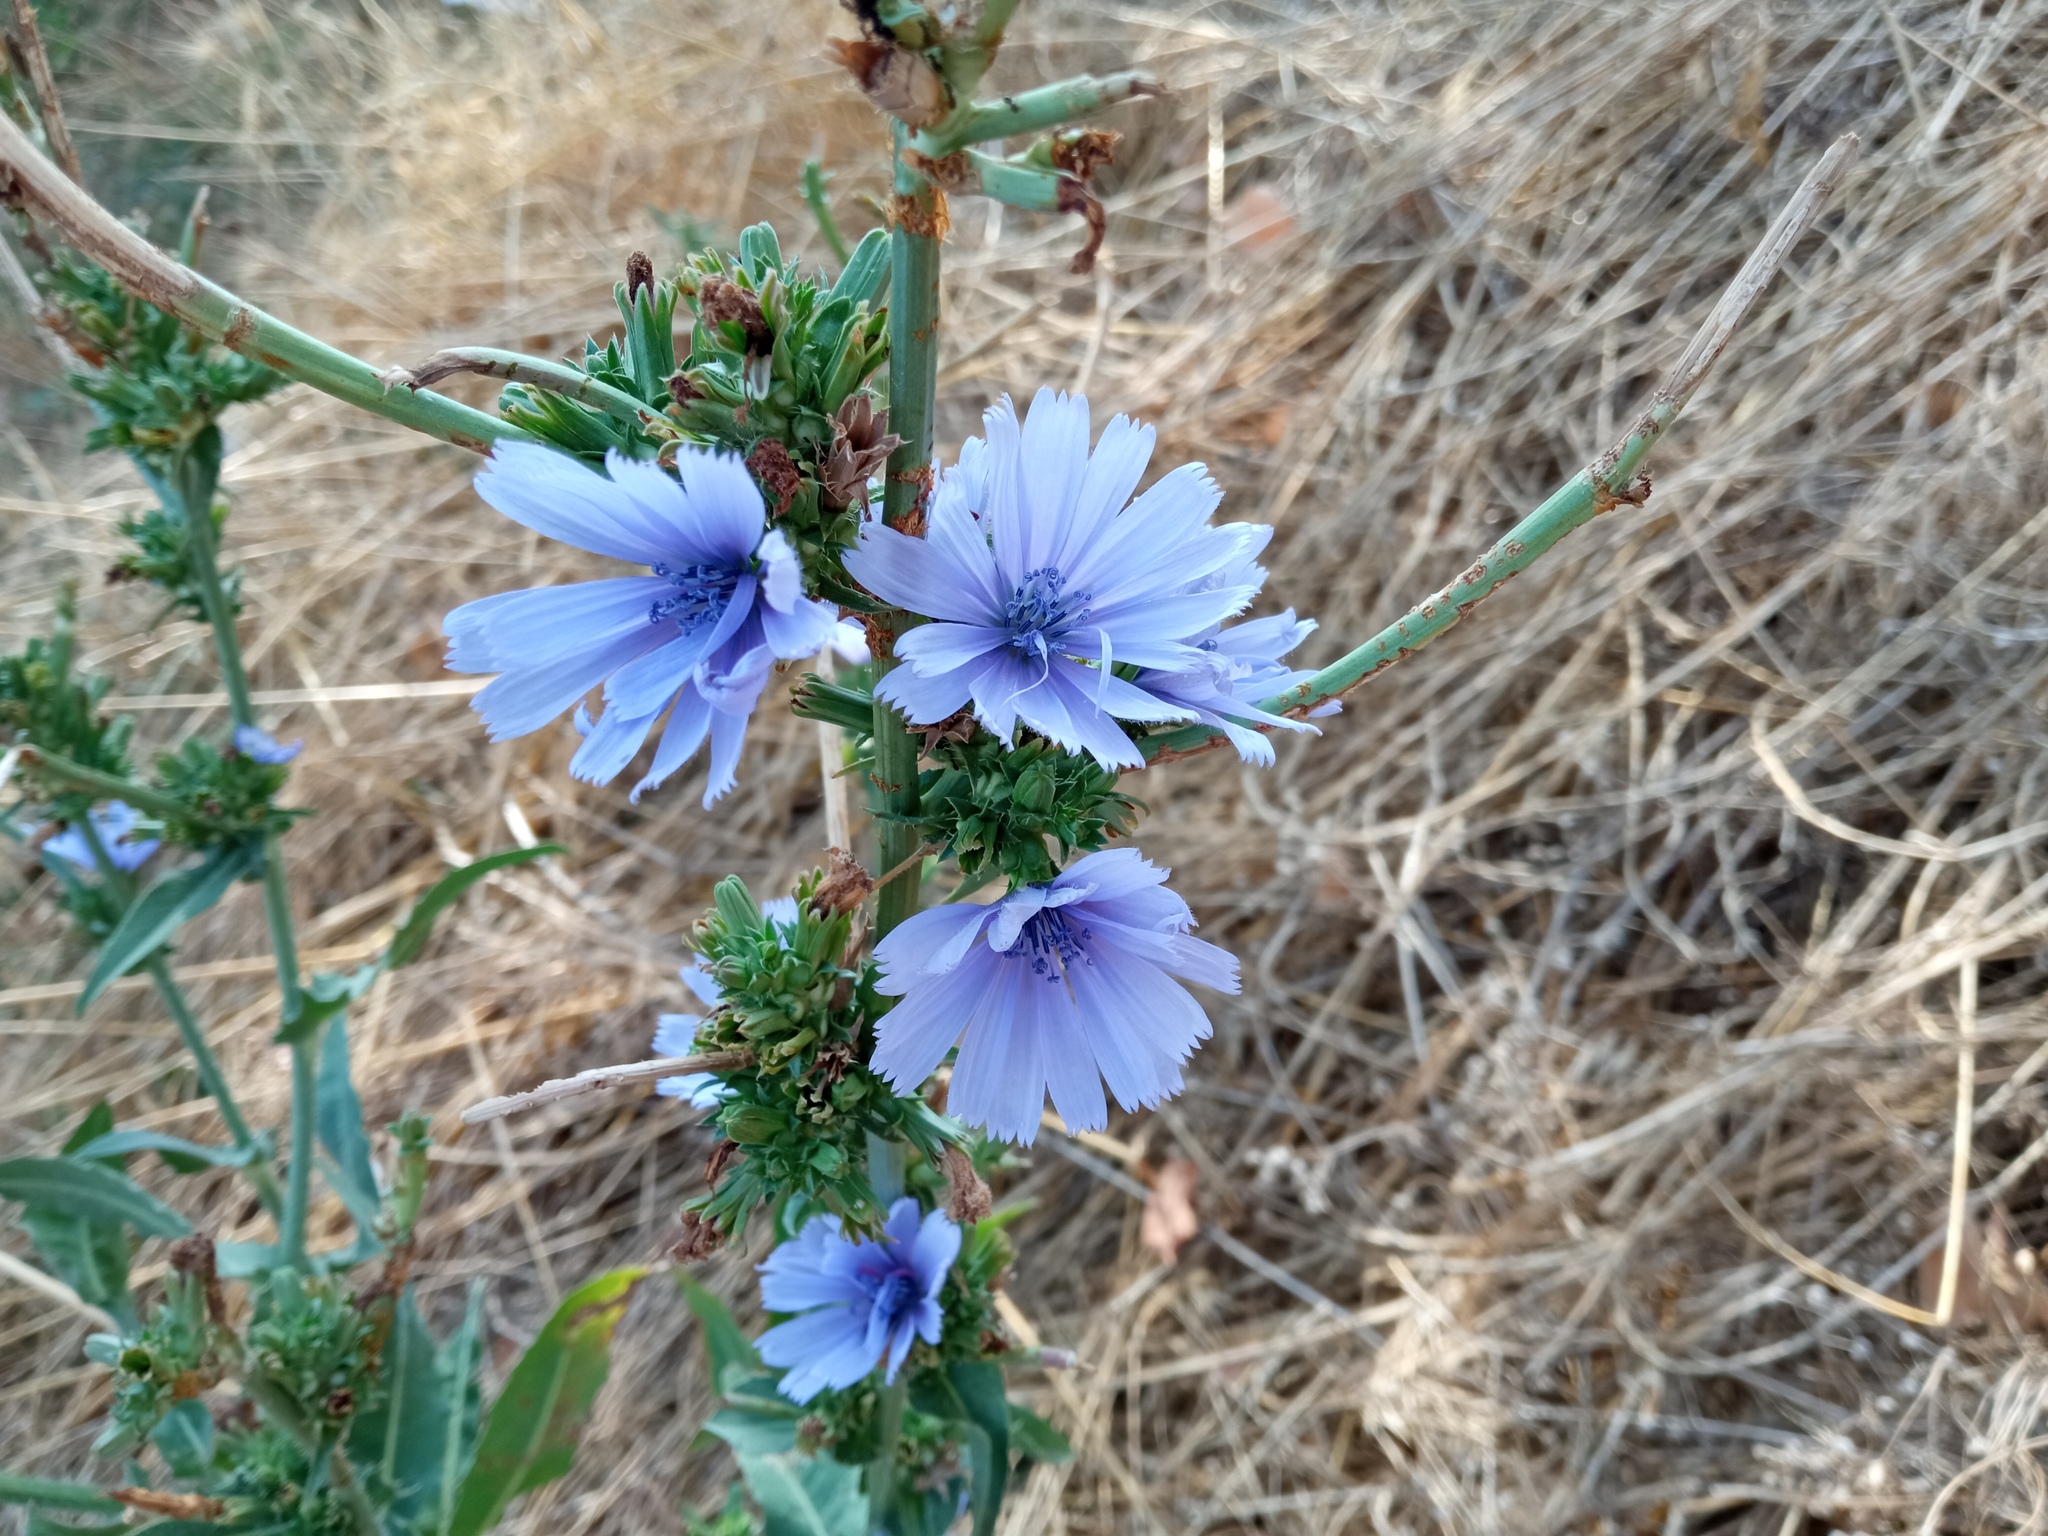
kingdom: Plantae
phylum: Tracheophyta
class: Magnoliopsida
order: Asterales
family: Asteraceae
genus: Cichorium
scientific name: Cichorium intybus
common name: Chicory
